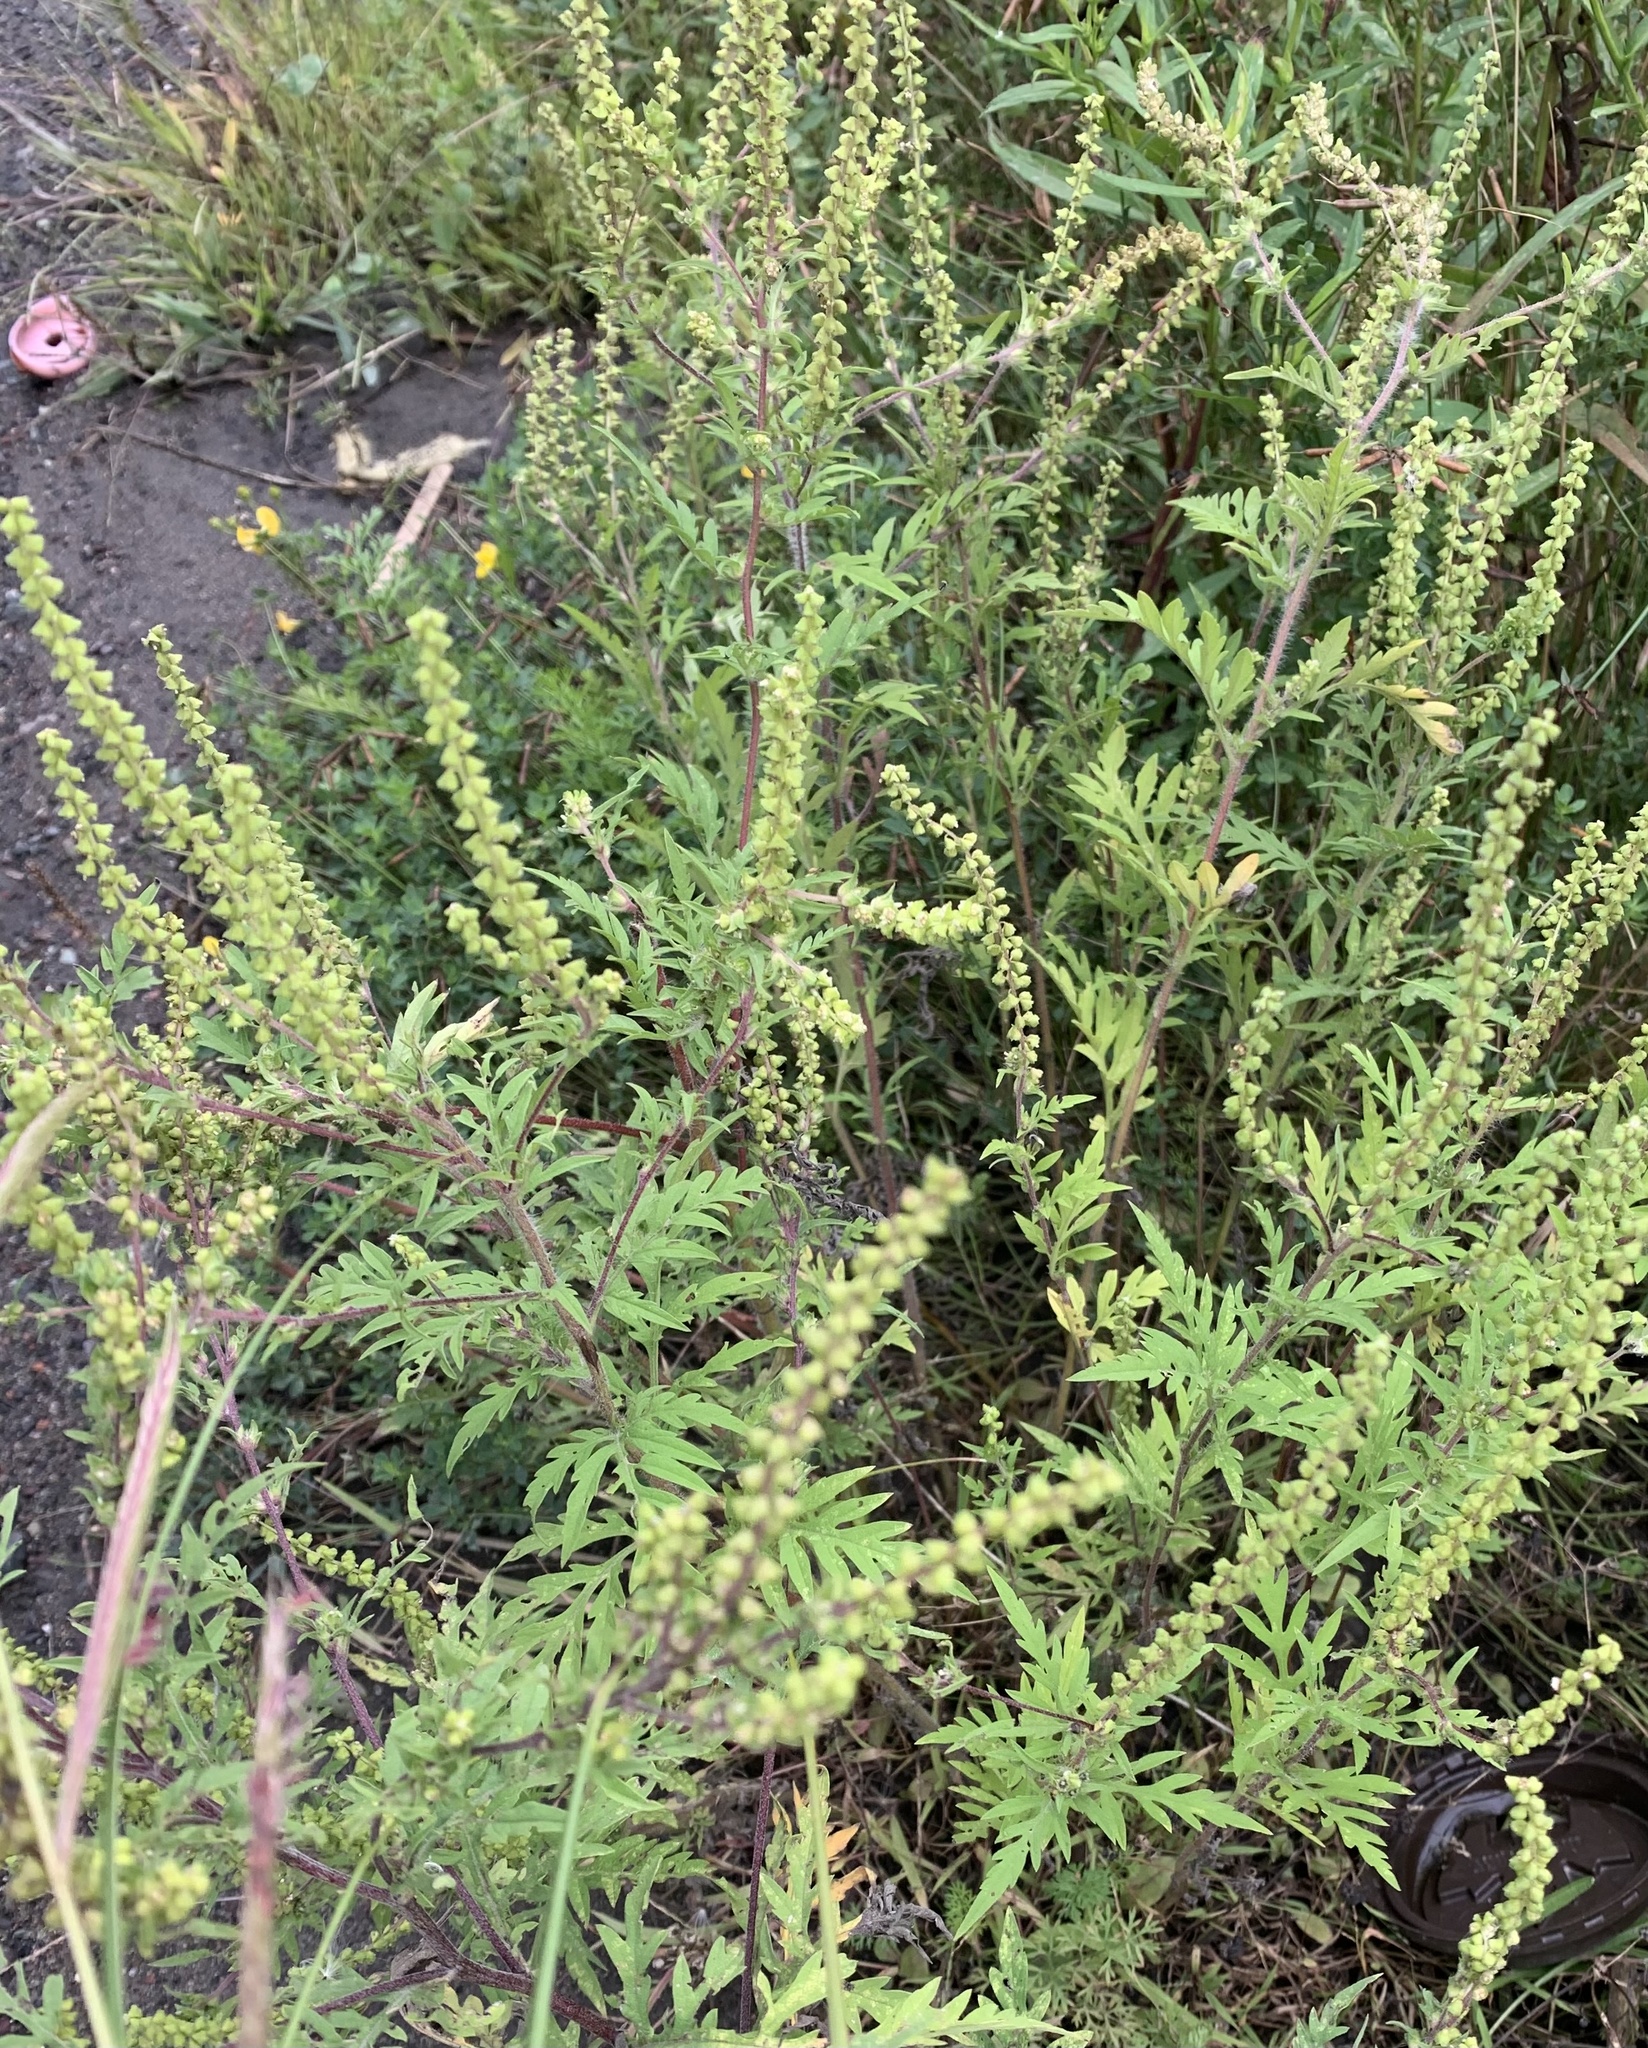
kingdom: Plantae
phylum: Tracheophyta
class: Magnoliopsida
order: Asterales
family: Asteraceae
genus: Ambrosia
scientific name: Ambrosia artemisiifolia
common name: Annual ragweed
